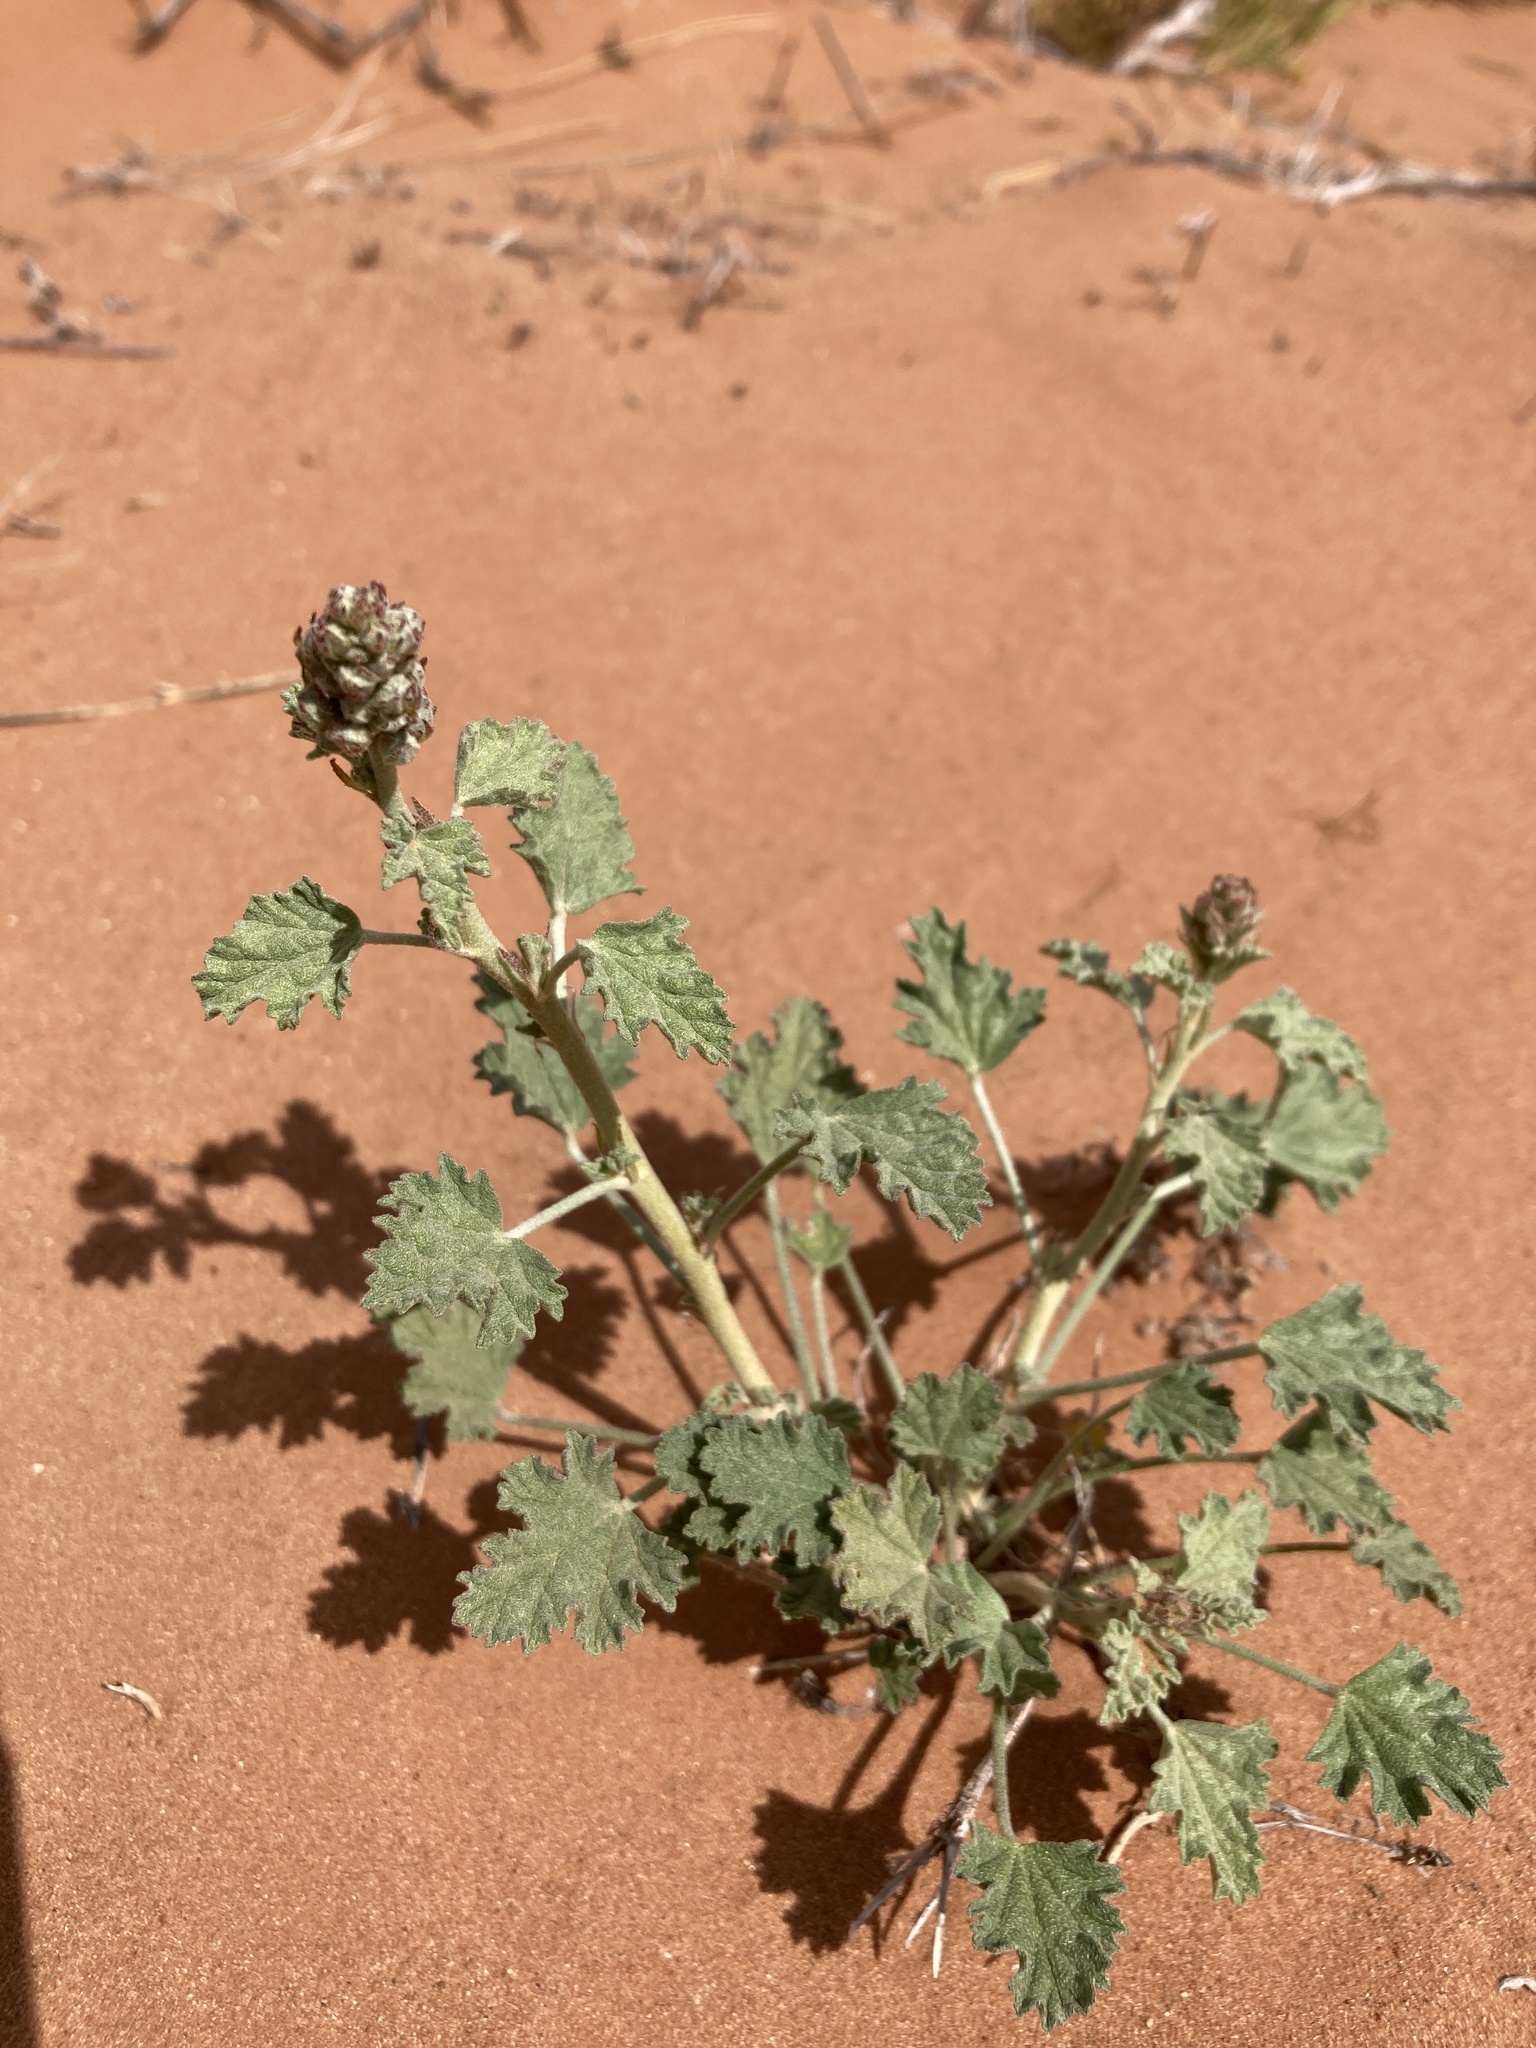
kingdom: Plantae
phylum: Tracheophyta
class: Magnoliopsida
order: Malvales
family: Malvaceae
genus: Sphaeralcea
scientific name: Sphaeralcea parvifolia
